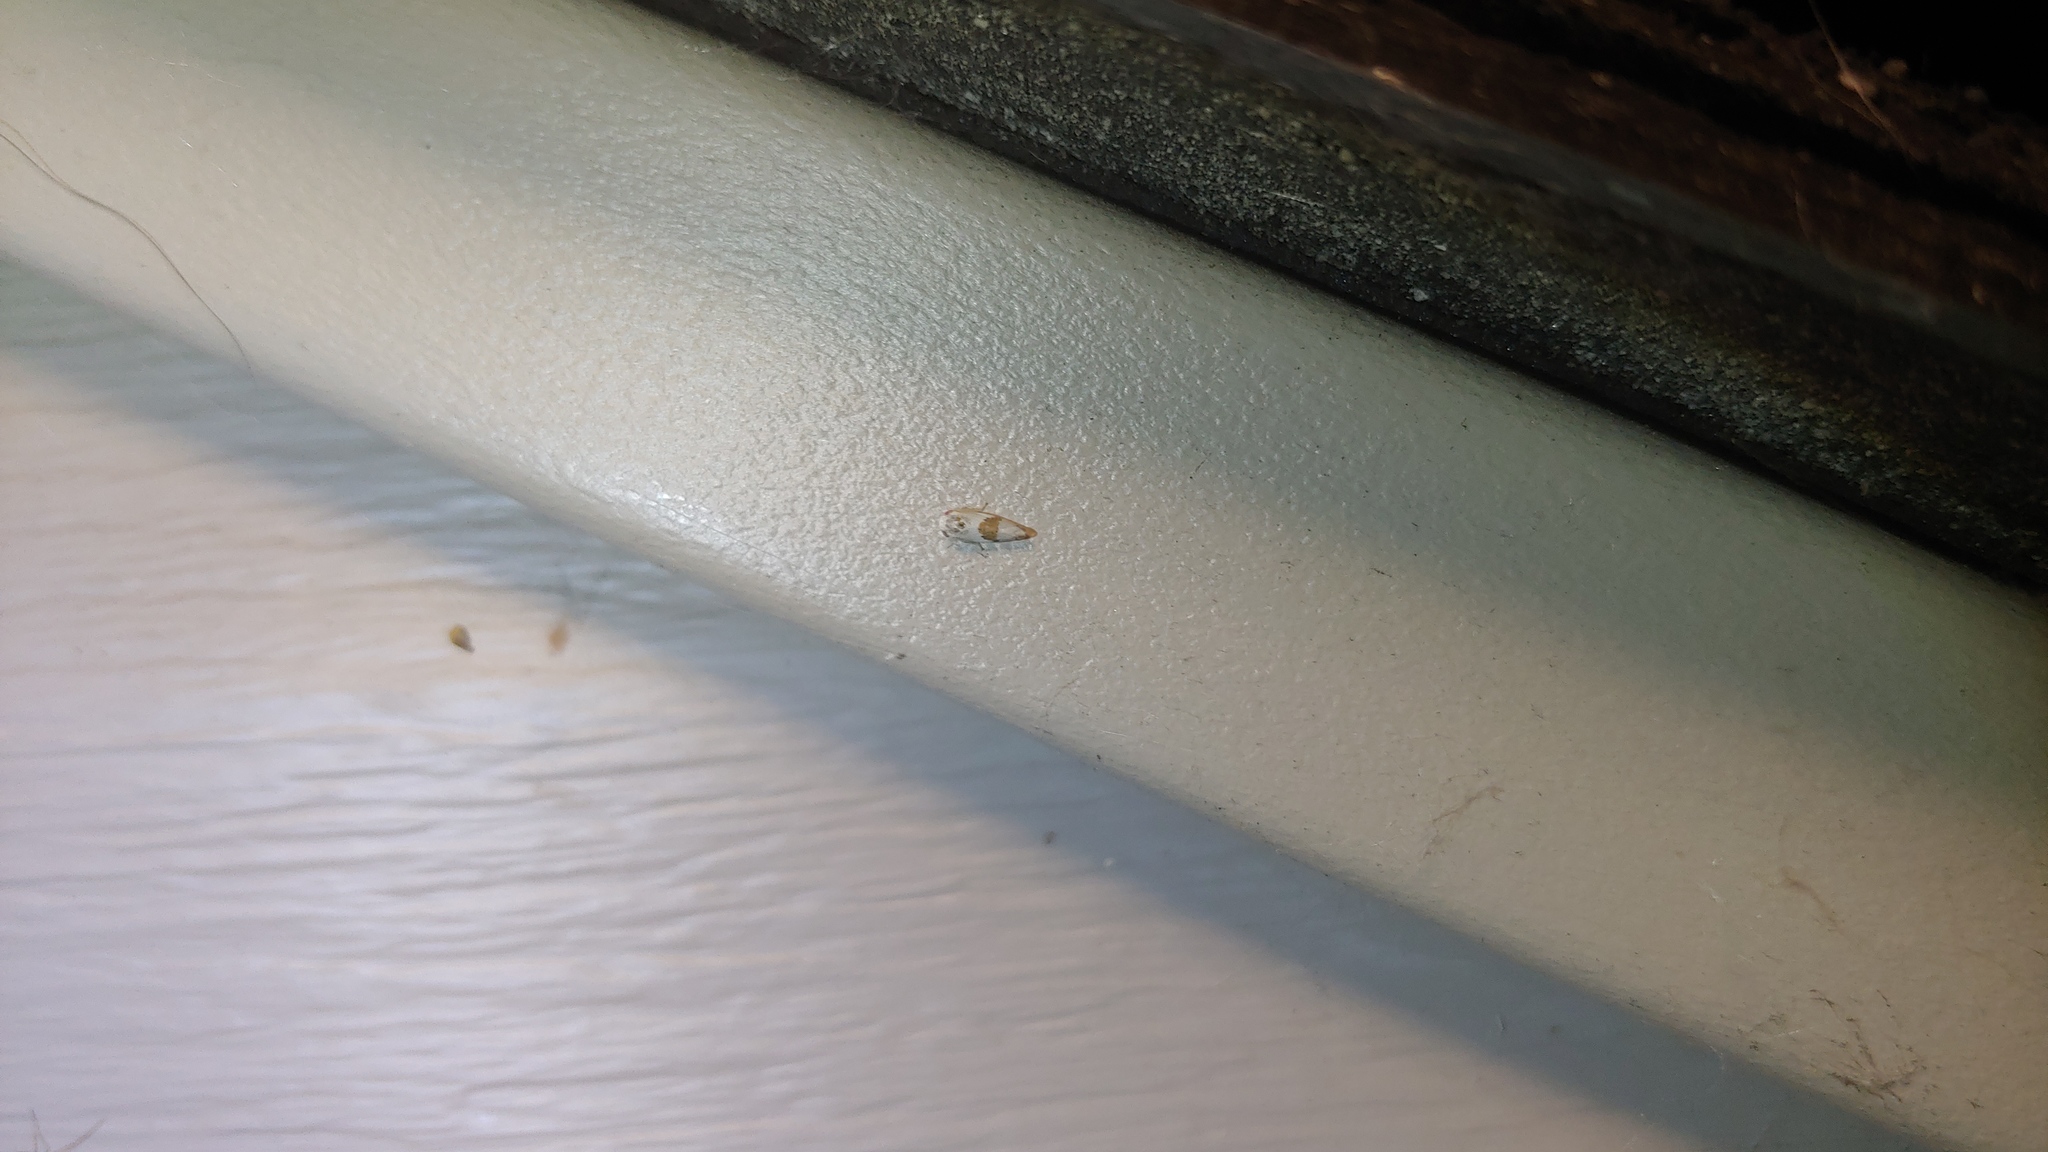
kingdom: Animalia
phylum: Arthropoda
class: Insecta
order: Hemiptera
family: Cicadellidae
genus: Norvellina
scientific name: Norvellina seminuda
